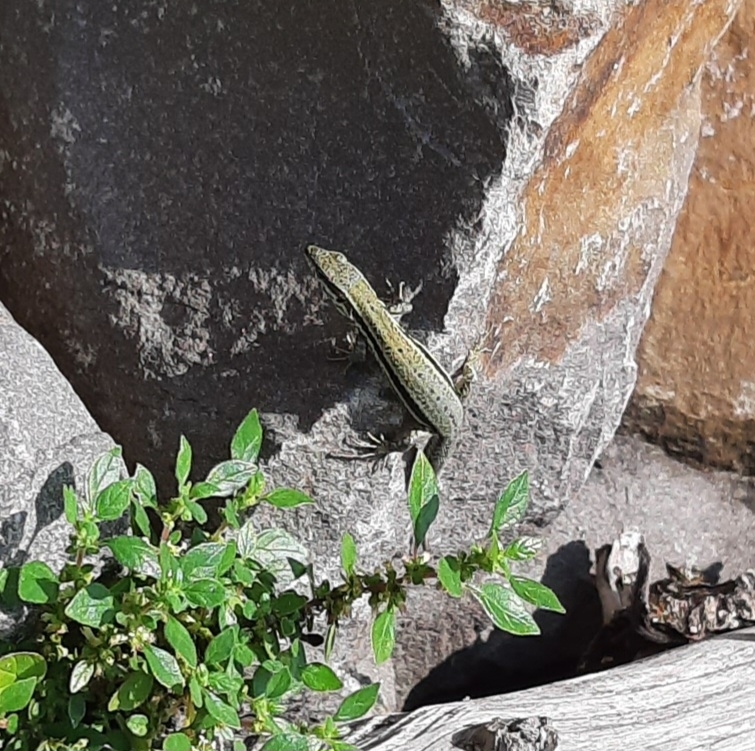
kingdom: Animalia
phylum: Chordata
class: Squamata
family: Lacertidae
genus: Podarcis
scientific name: Podarcis muralis
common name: Common wall lizard
